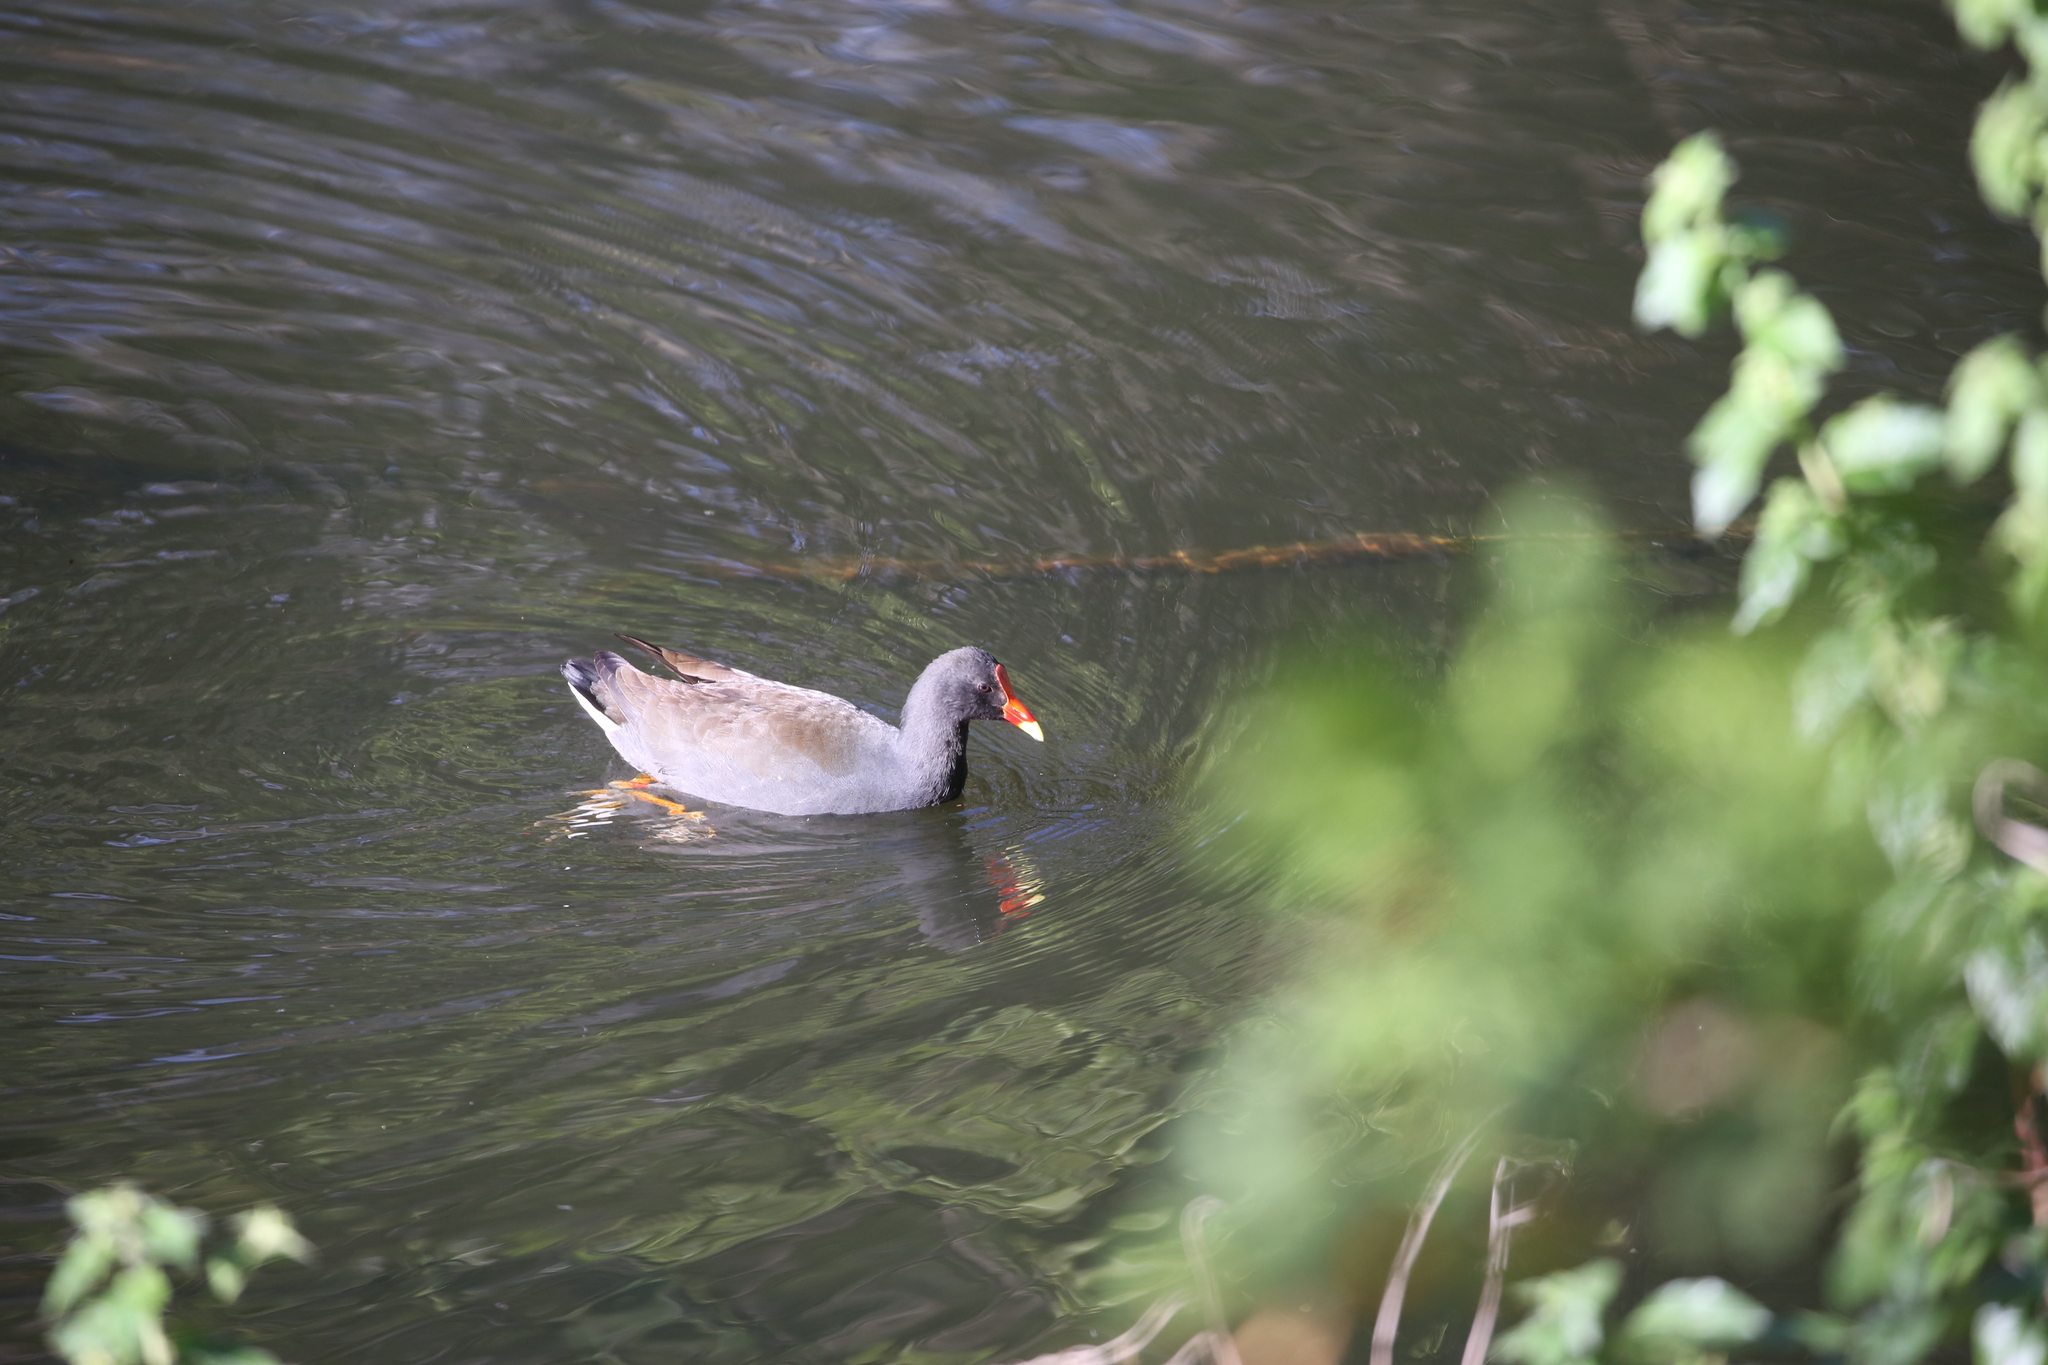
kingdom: Animalia
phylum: Chordata
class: Aves
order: Gruiformes
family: Rallidae
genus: Gallinula
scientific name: Gallinula tenebrosa
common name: Dusky moorhen
